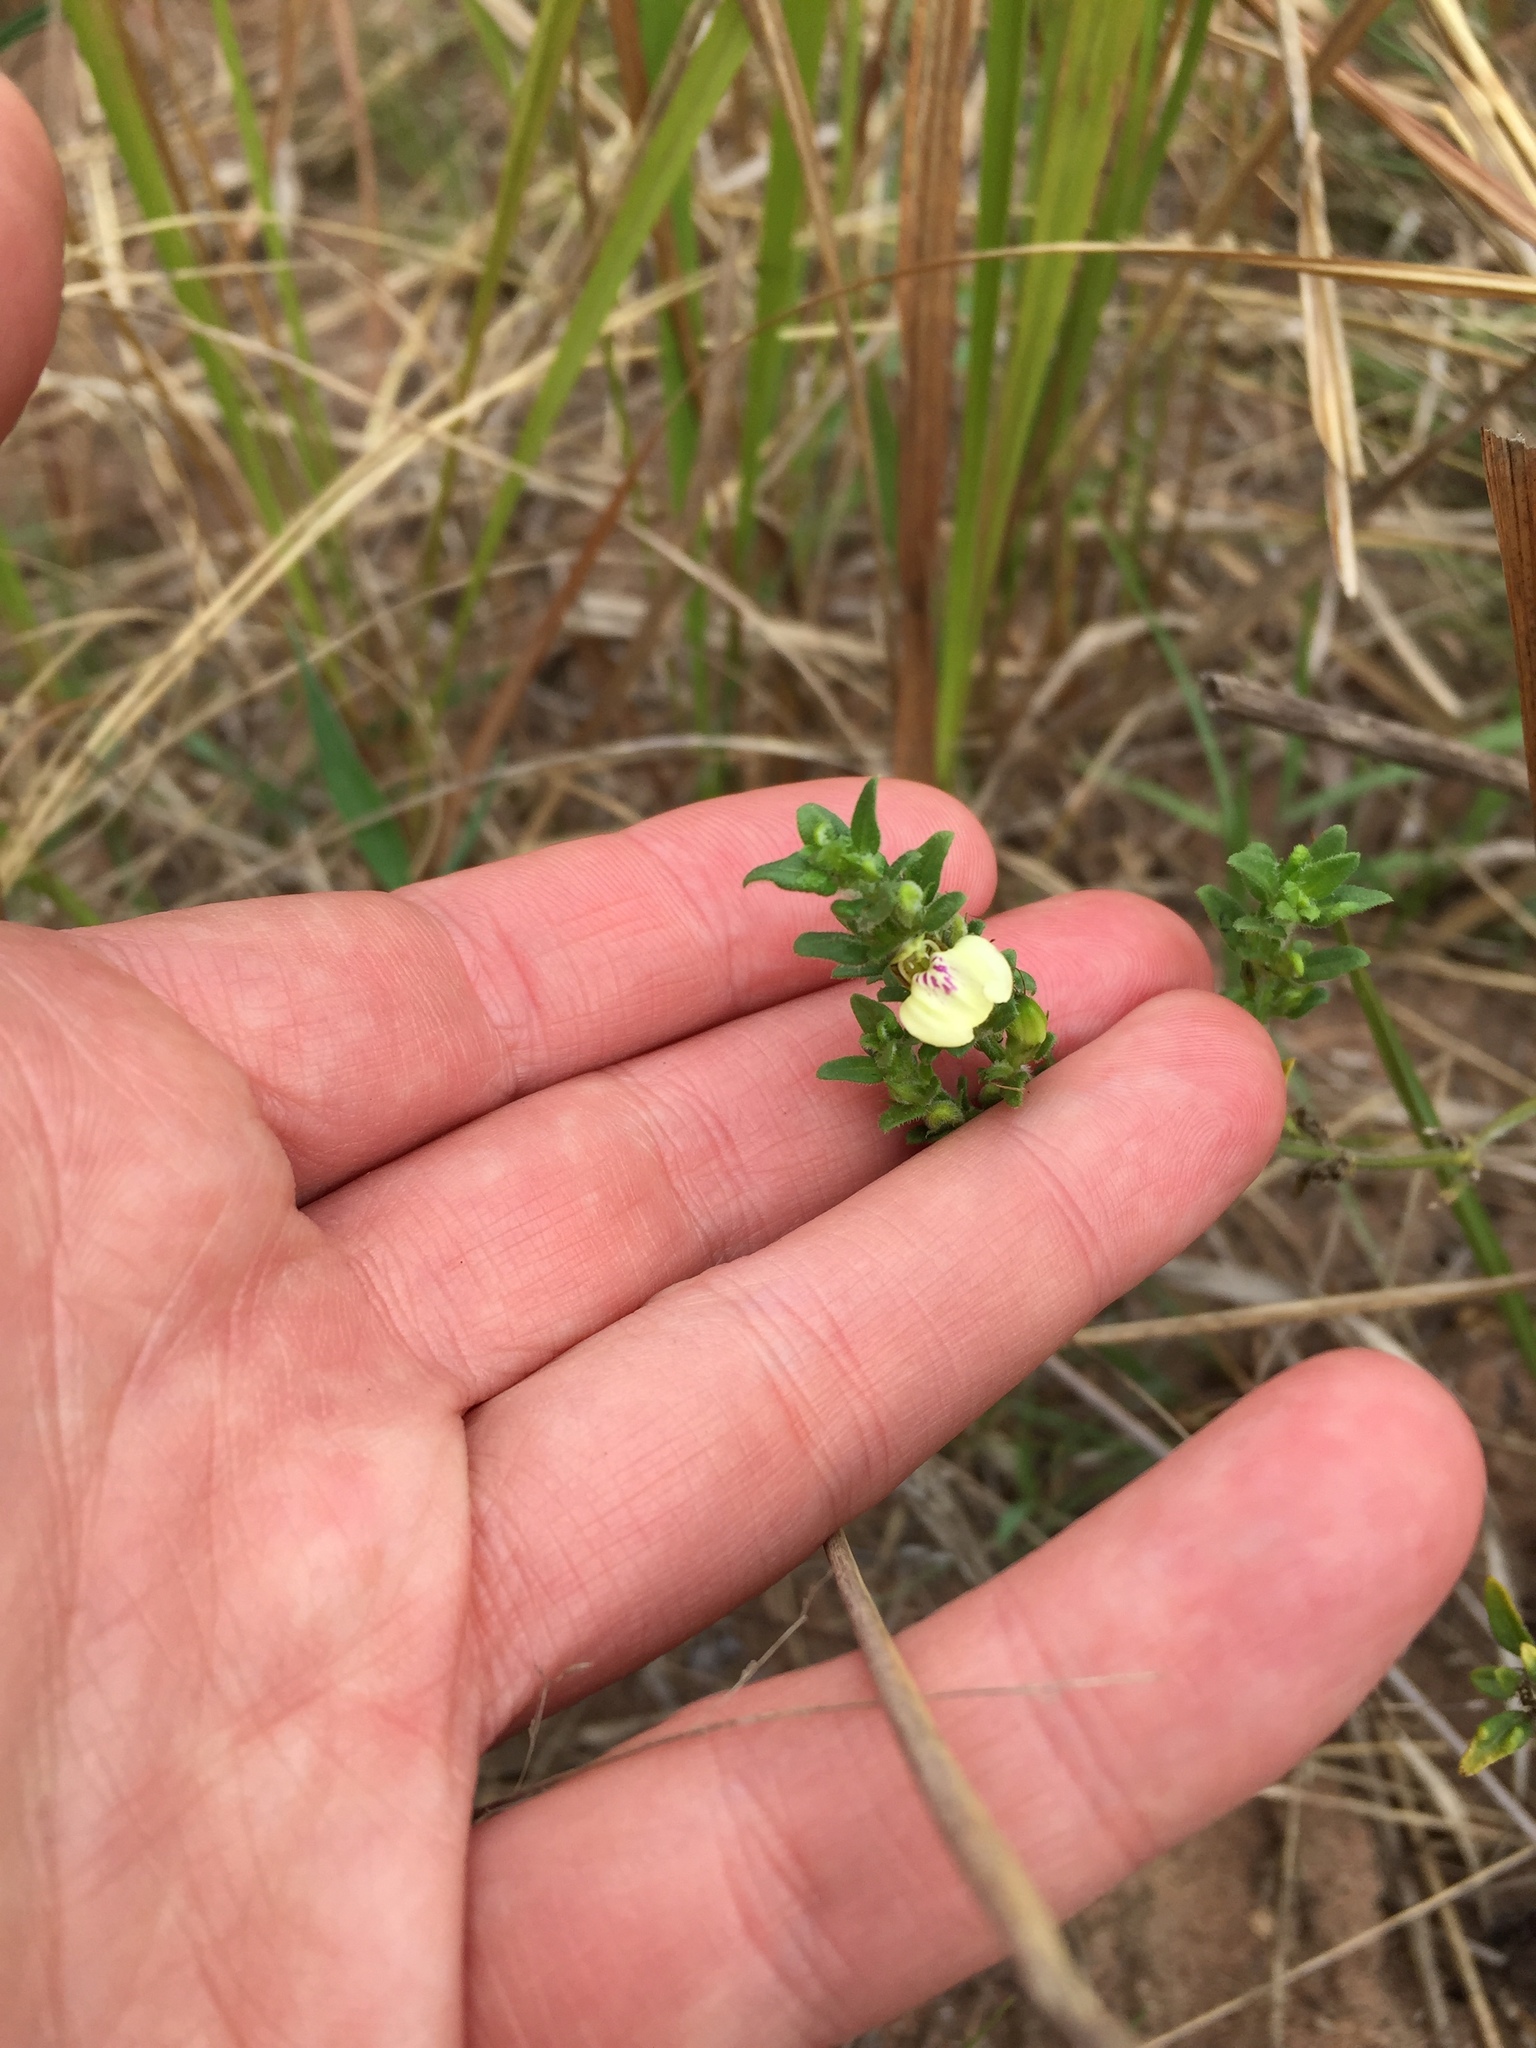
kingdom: Plantae
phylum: Tracheophyta
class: Magnoliopsida
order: Lamiales
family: Acanthaceae
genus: Justicia
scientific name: Justicia protracta
